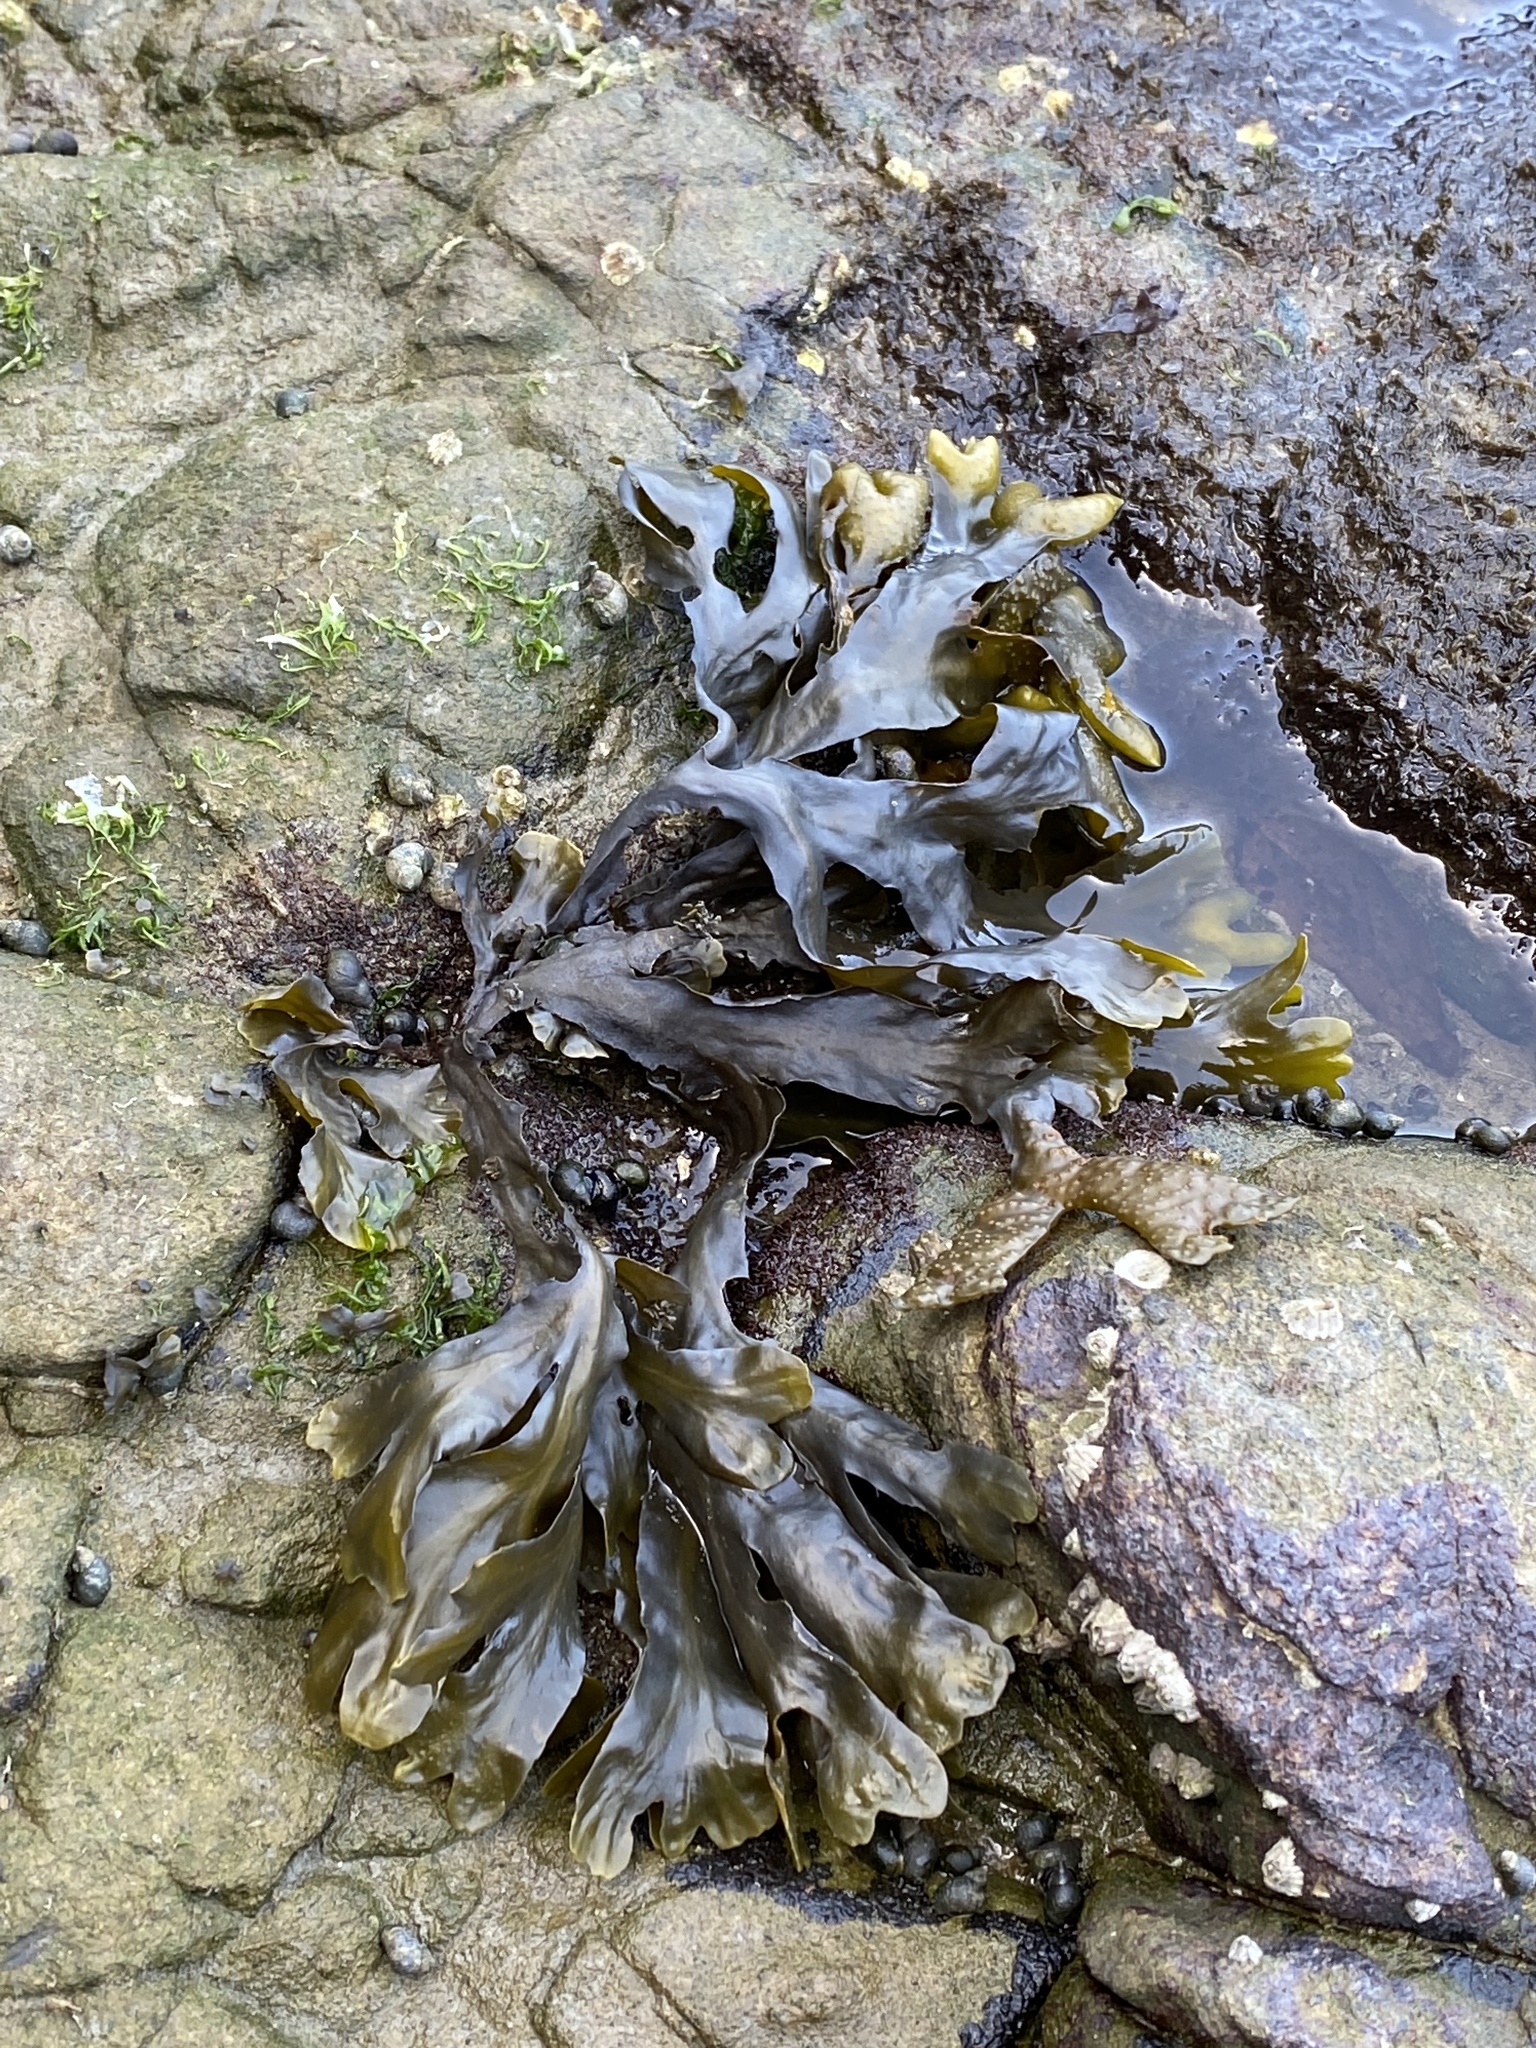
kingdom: Chromista
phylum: Ochrophyta
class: Phaeophyceae
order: Fucales
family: Fucaceae
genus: Fucus
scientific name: Fucus distichus
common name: Rockweed
